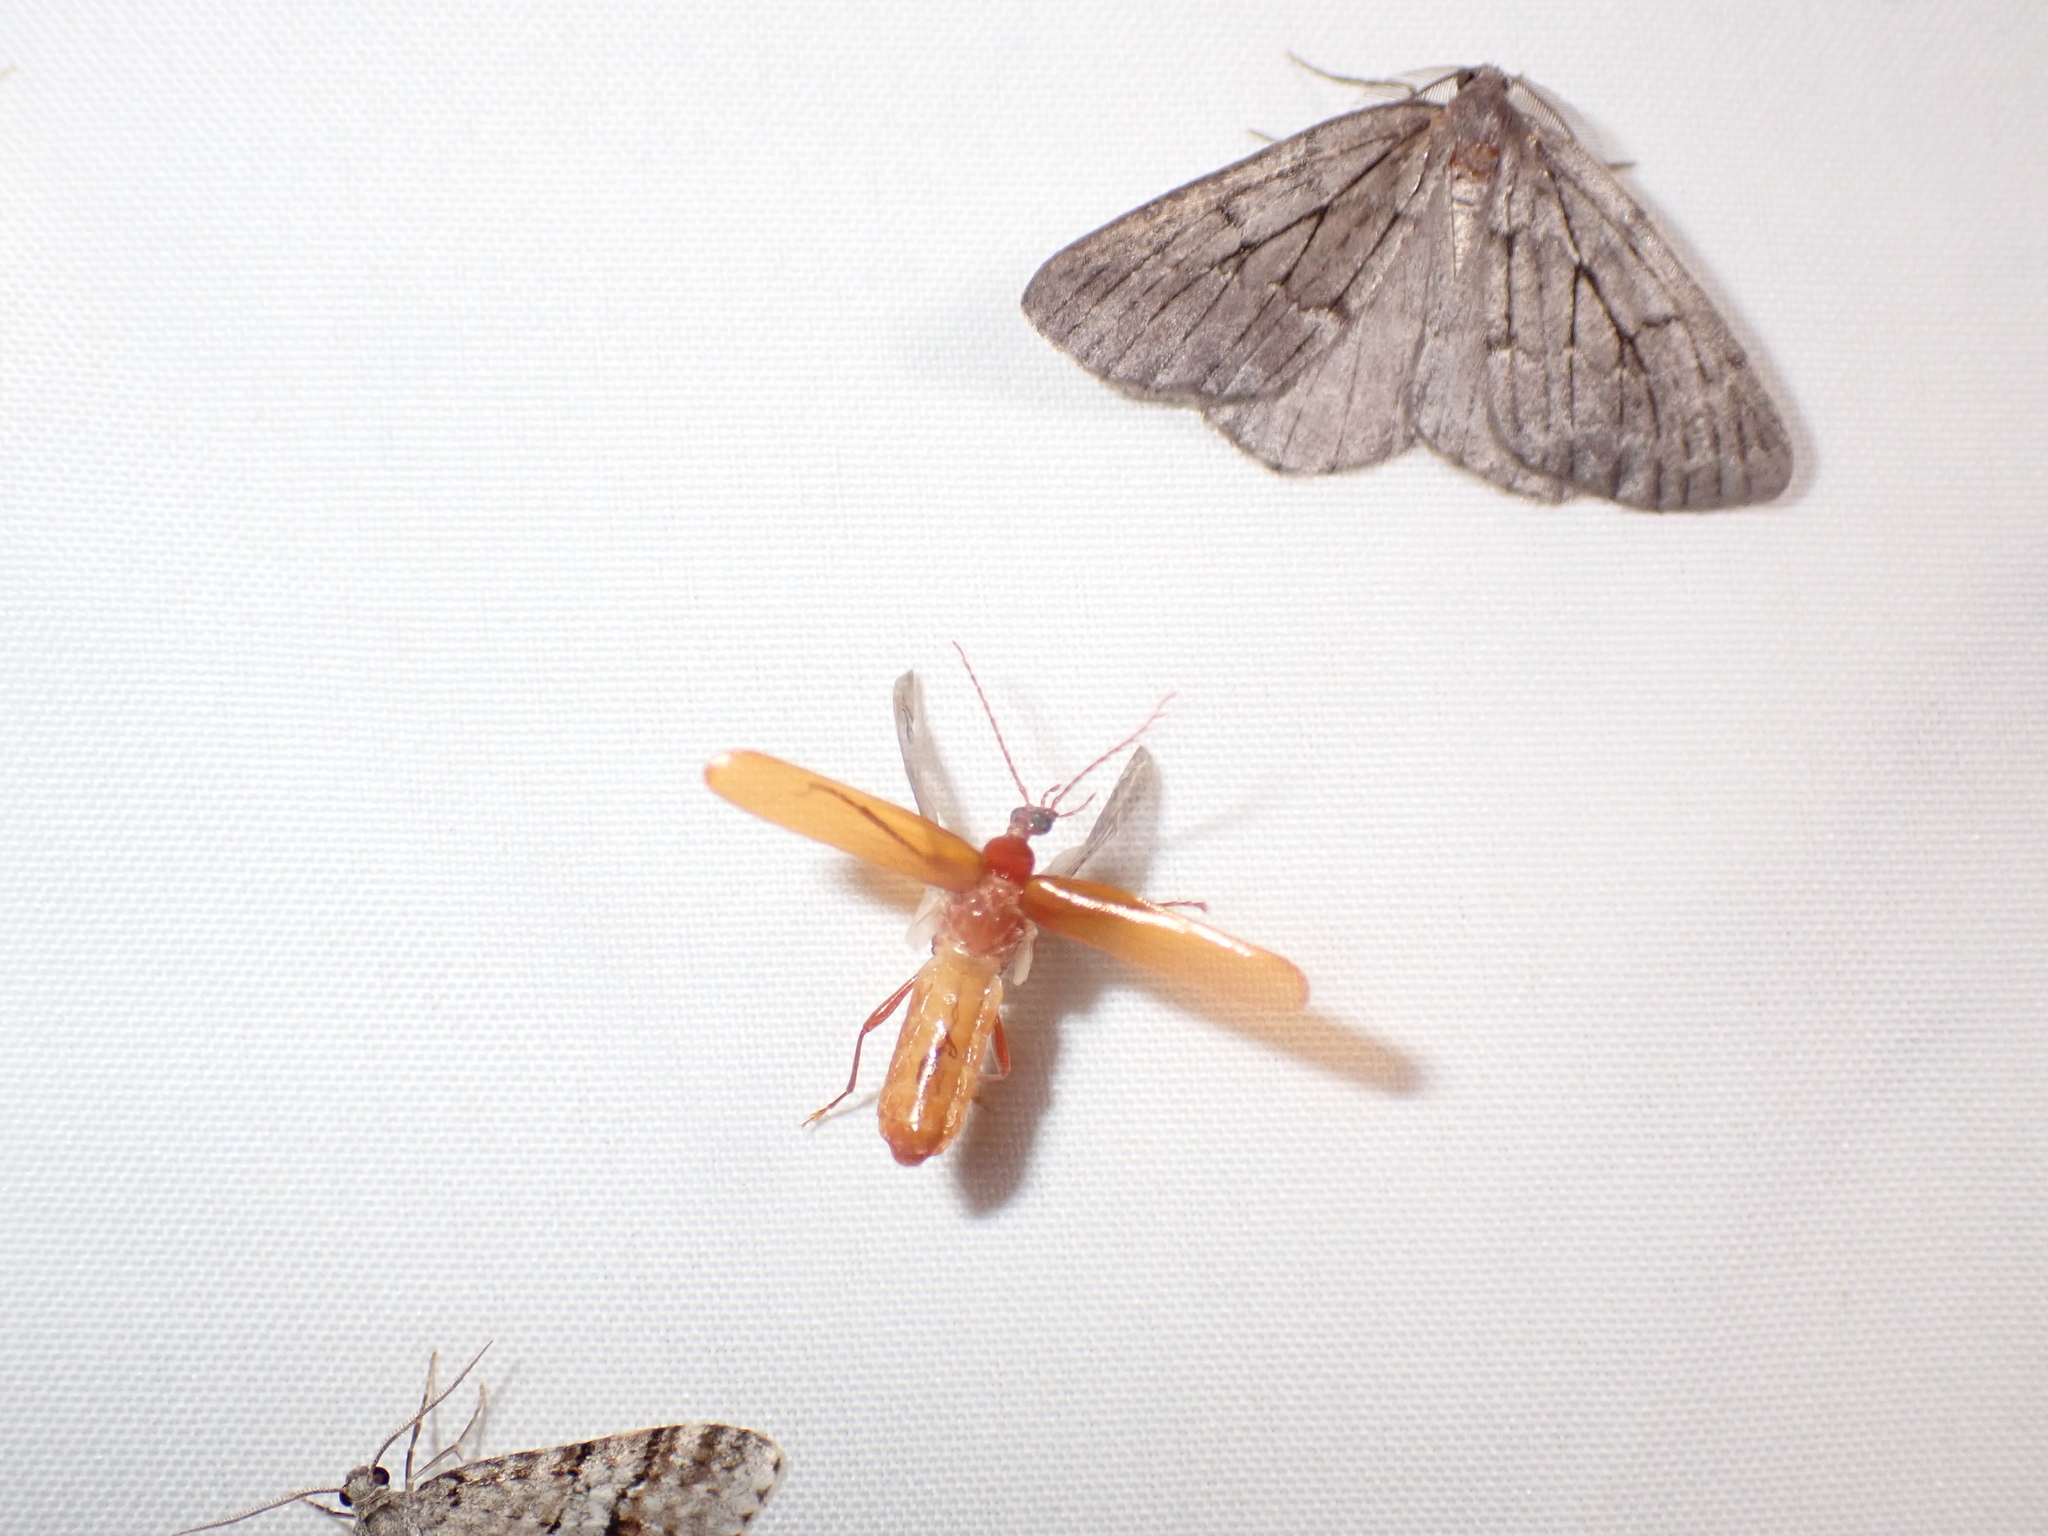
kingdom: Animalia
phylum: Arthropoda
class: Insecta
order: Coleoptera
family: Pyrochroidae
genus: Dendroides
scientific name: Dendroides ephemeroides
